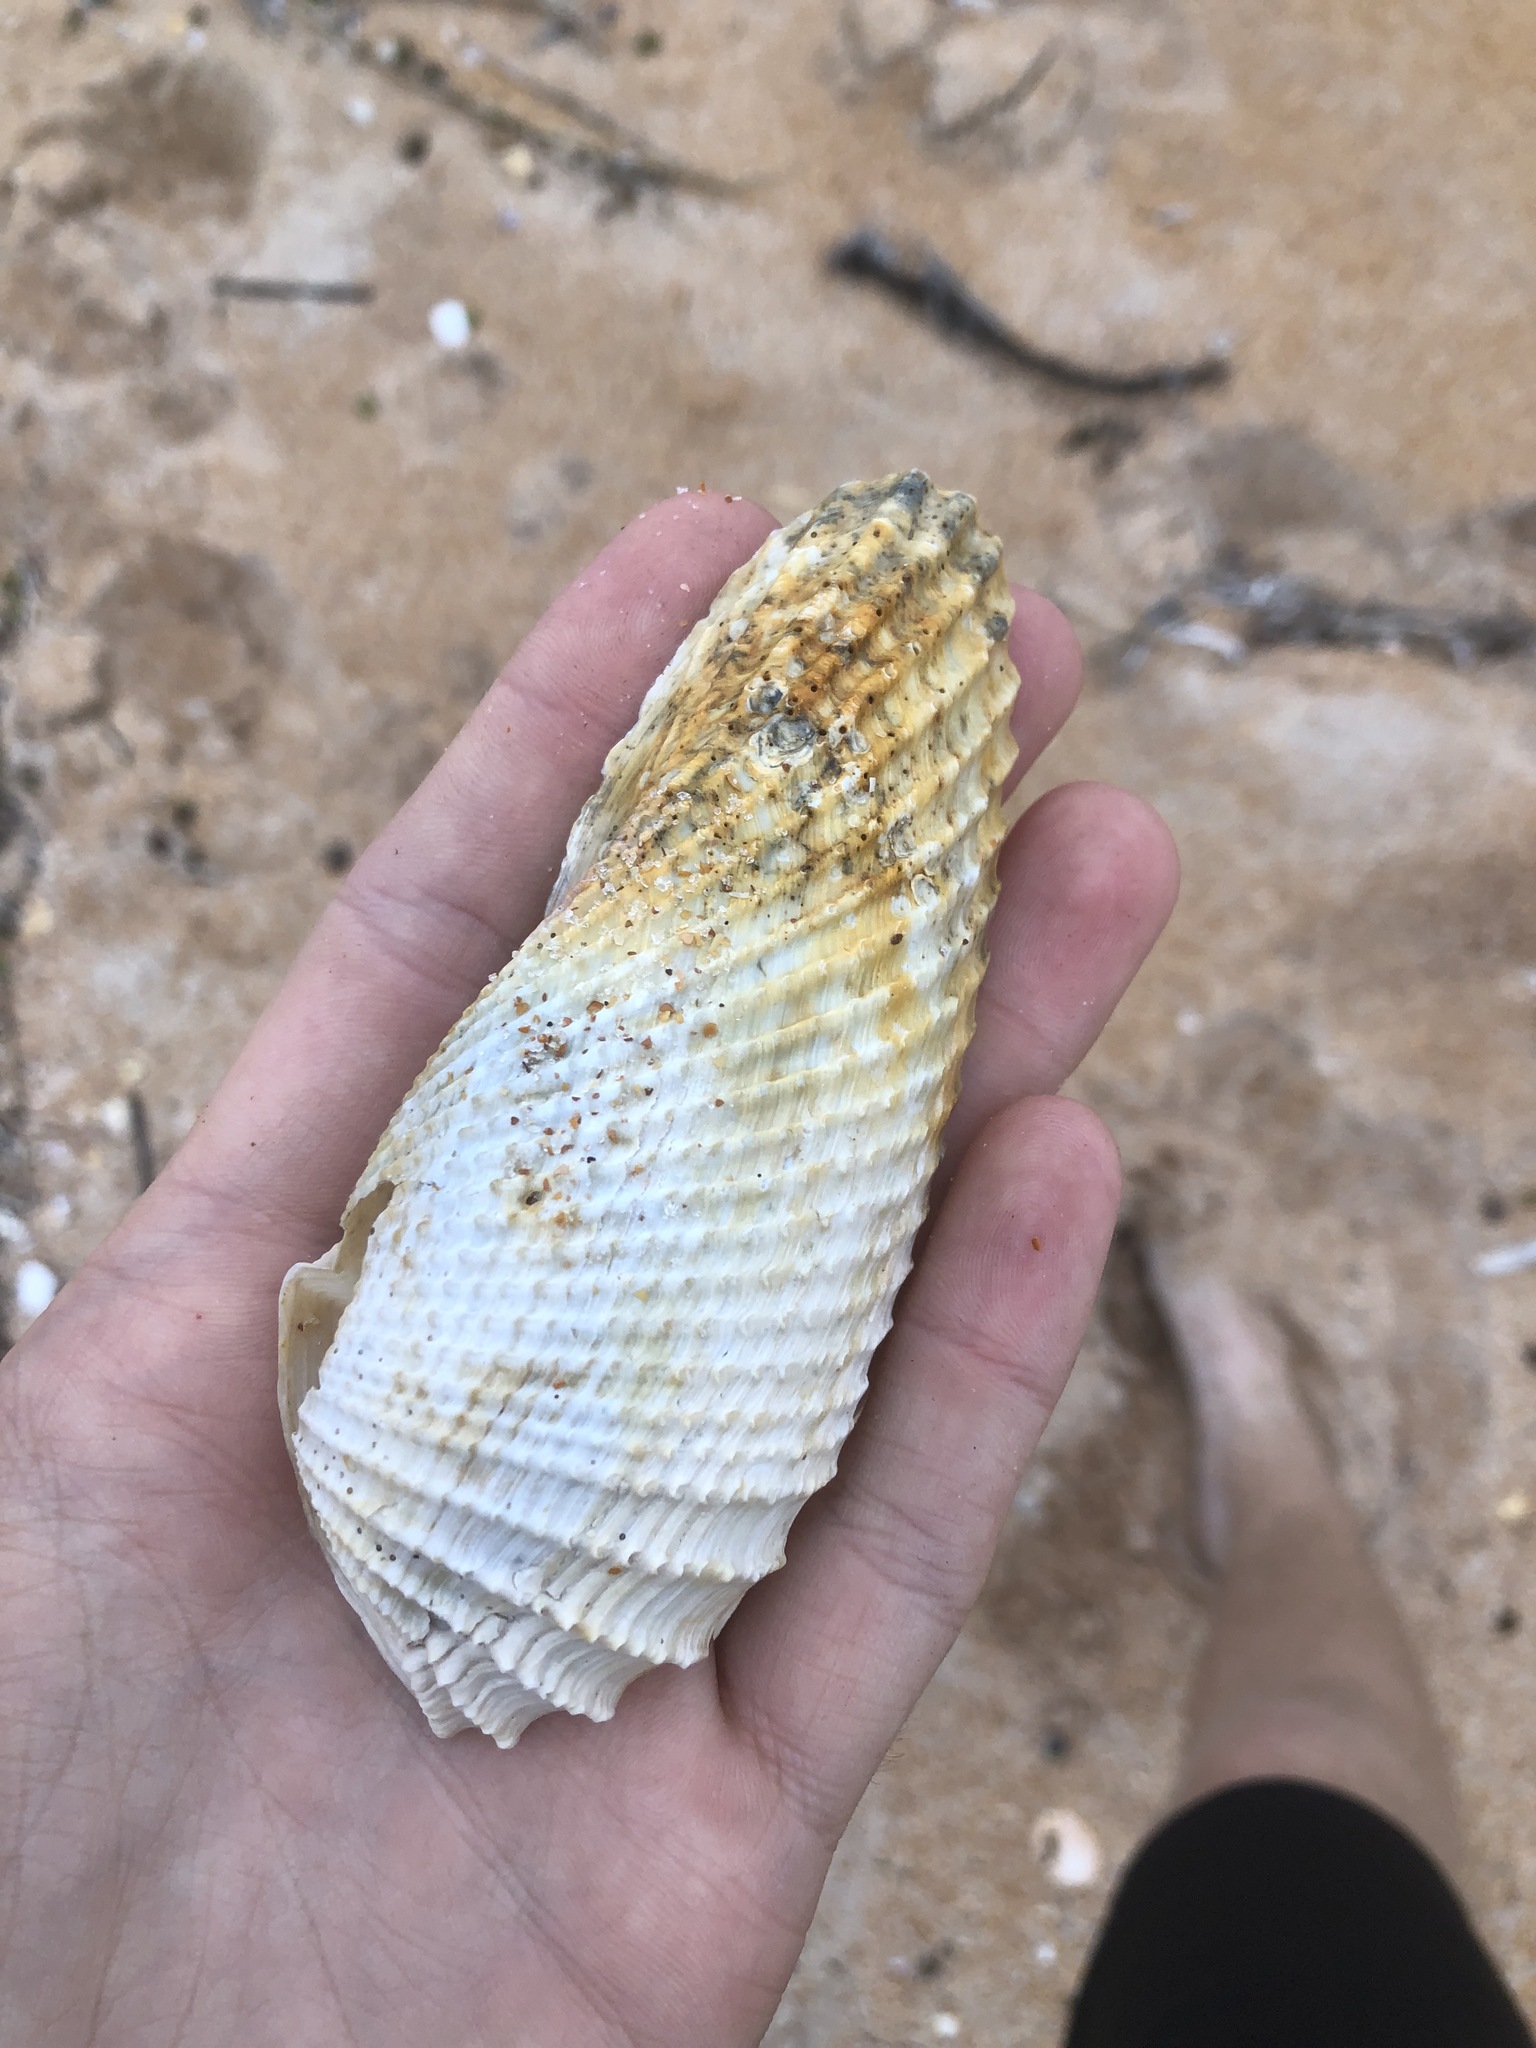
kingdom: Animalia
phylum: Mollusca
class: Bivalvia
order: Myida
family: Pholadidae
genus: Cyrtopleura
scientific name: Cyrtopleura costata
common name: Angel wing
